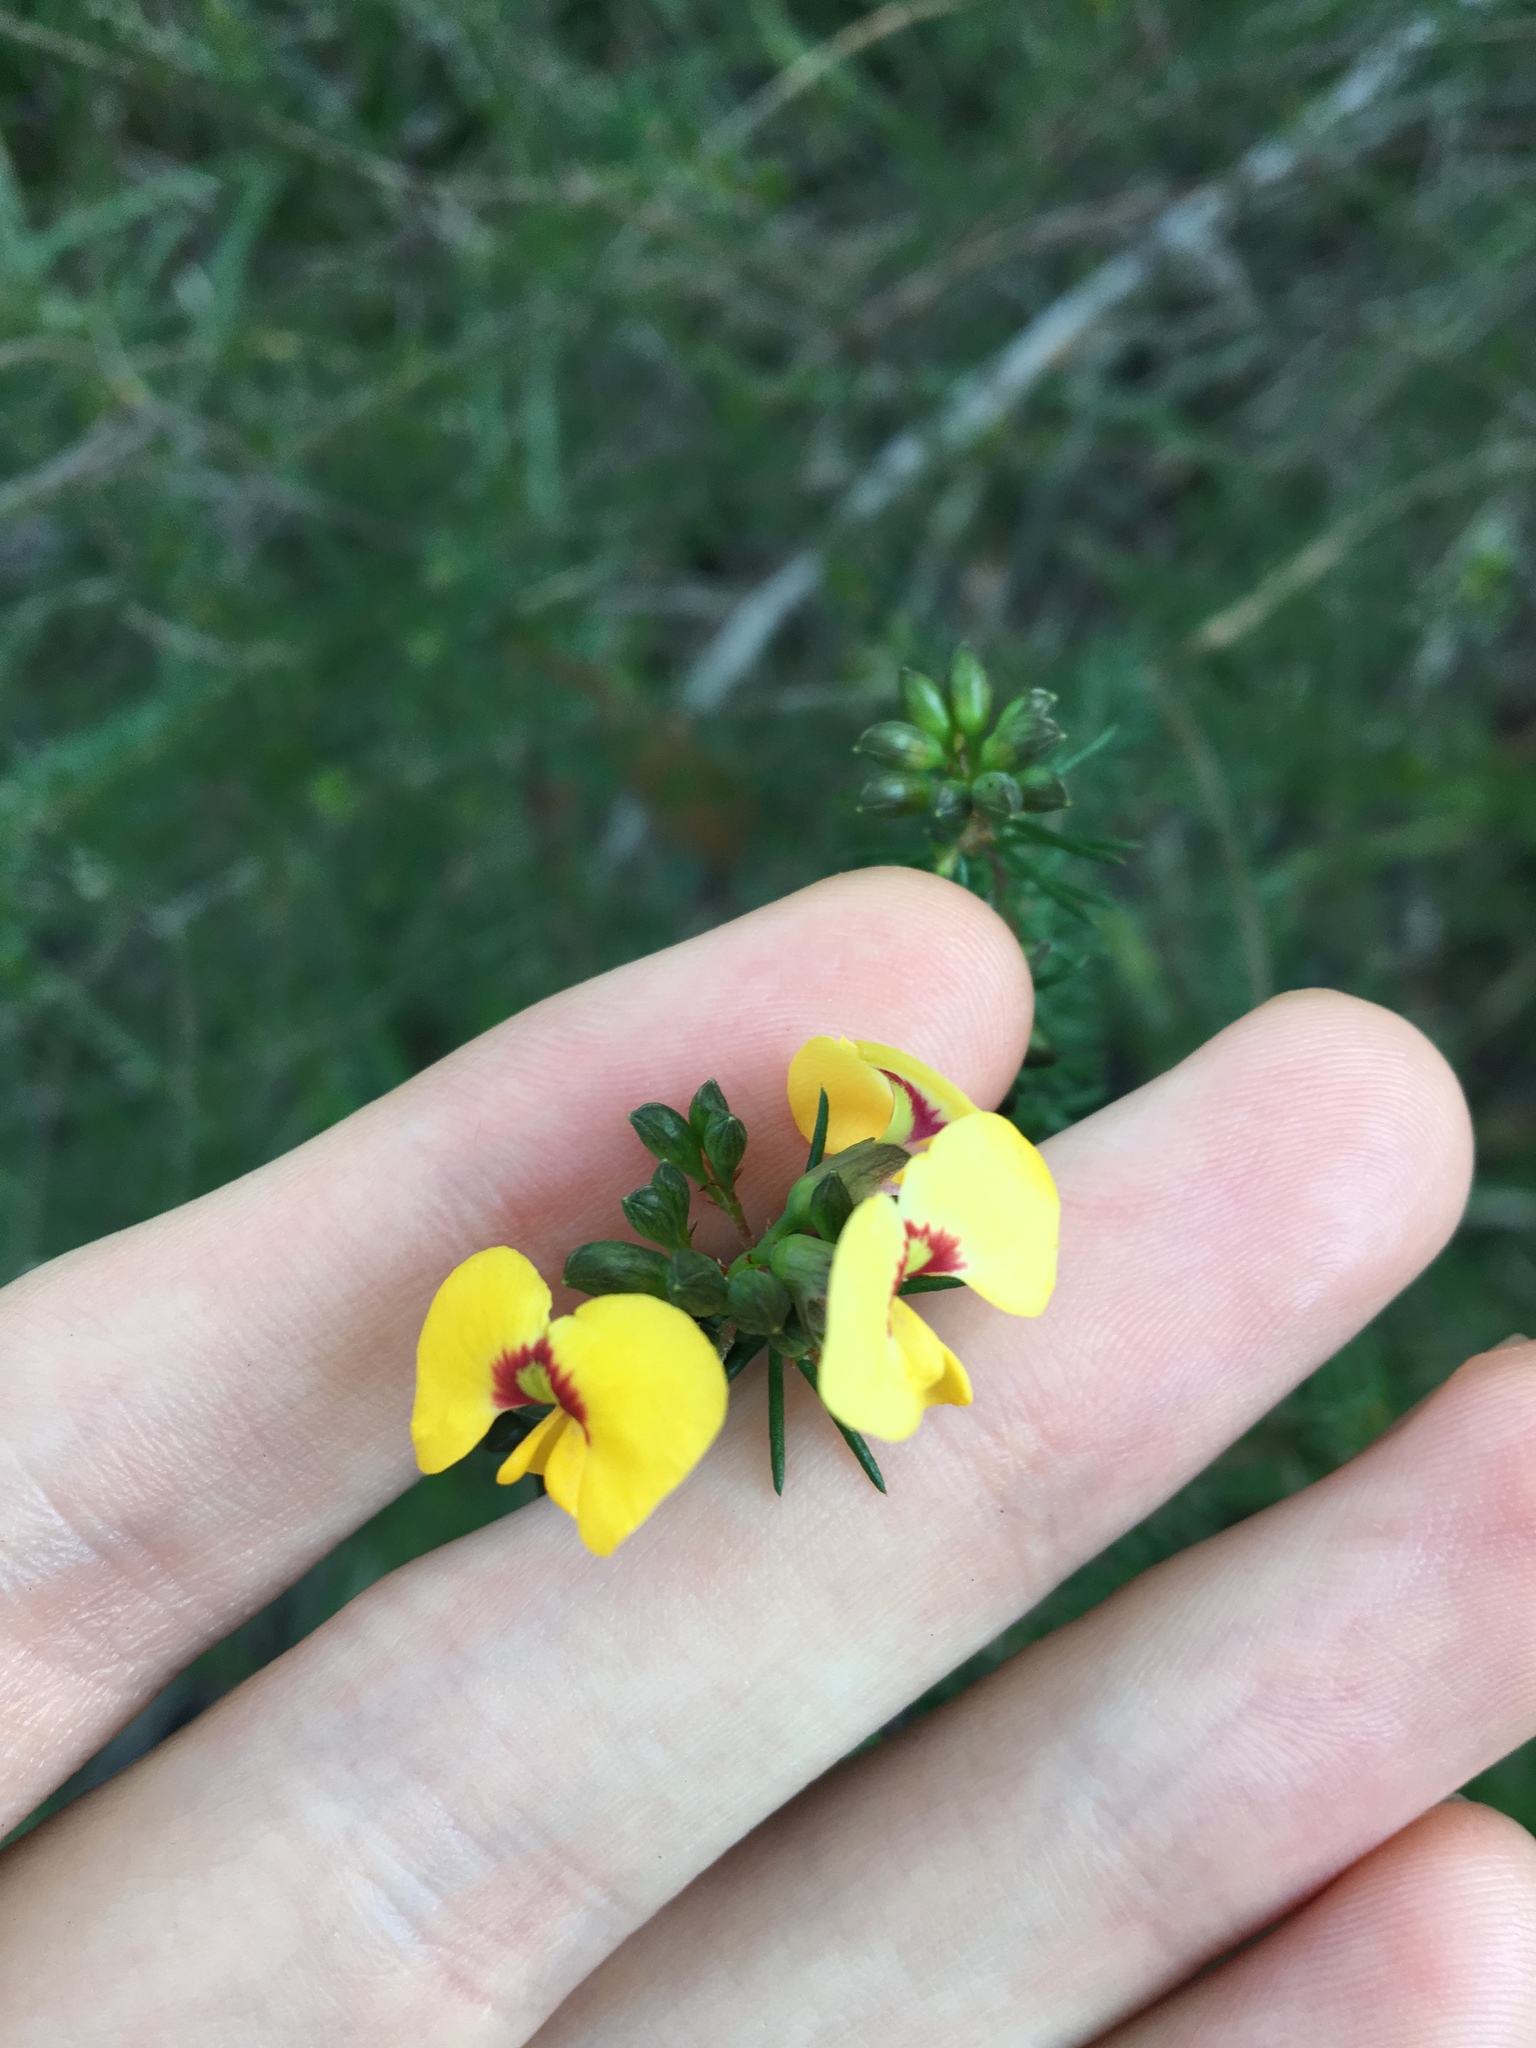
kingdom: Plantae
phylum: Tracheophyta
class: Magnoliopsida
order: Fabales
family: Fabaceae
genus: Dillwynia
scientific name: Dillwynia retorta
